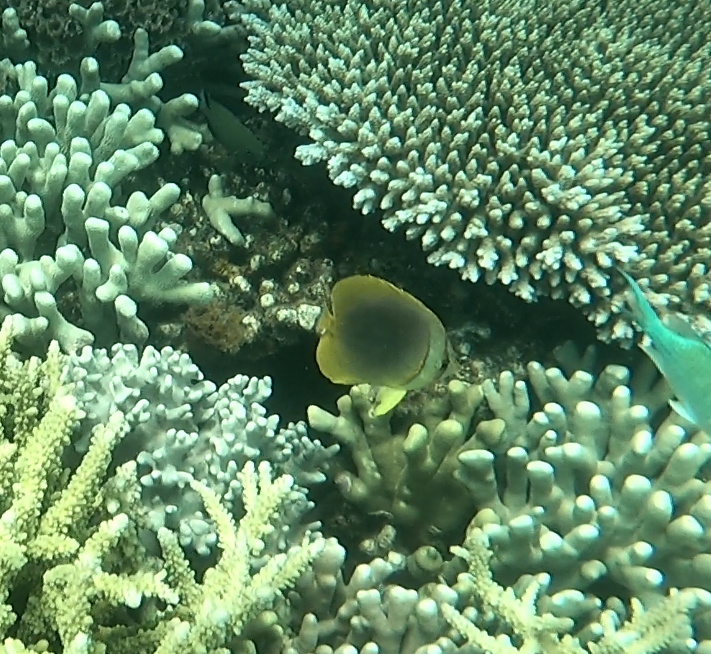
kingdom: Animalia
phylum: Chordata
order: Perciformes
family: Chaetodontidae
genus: Chaetodon
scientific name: Chaetodon aureofasciatus
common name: Golden butterflyfish
